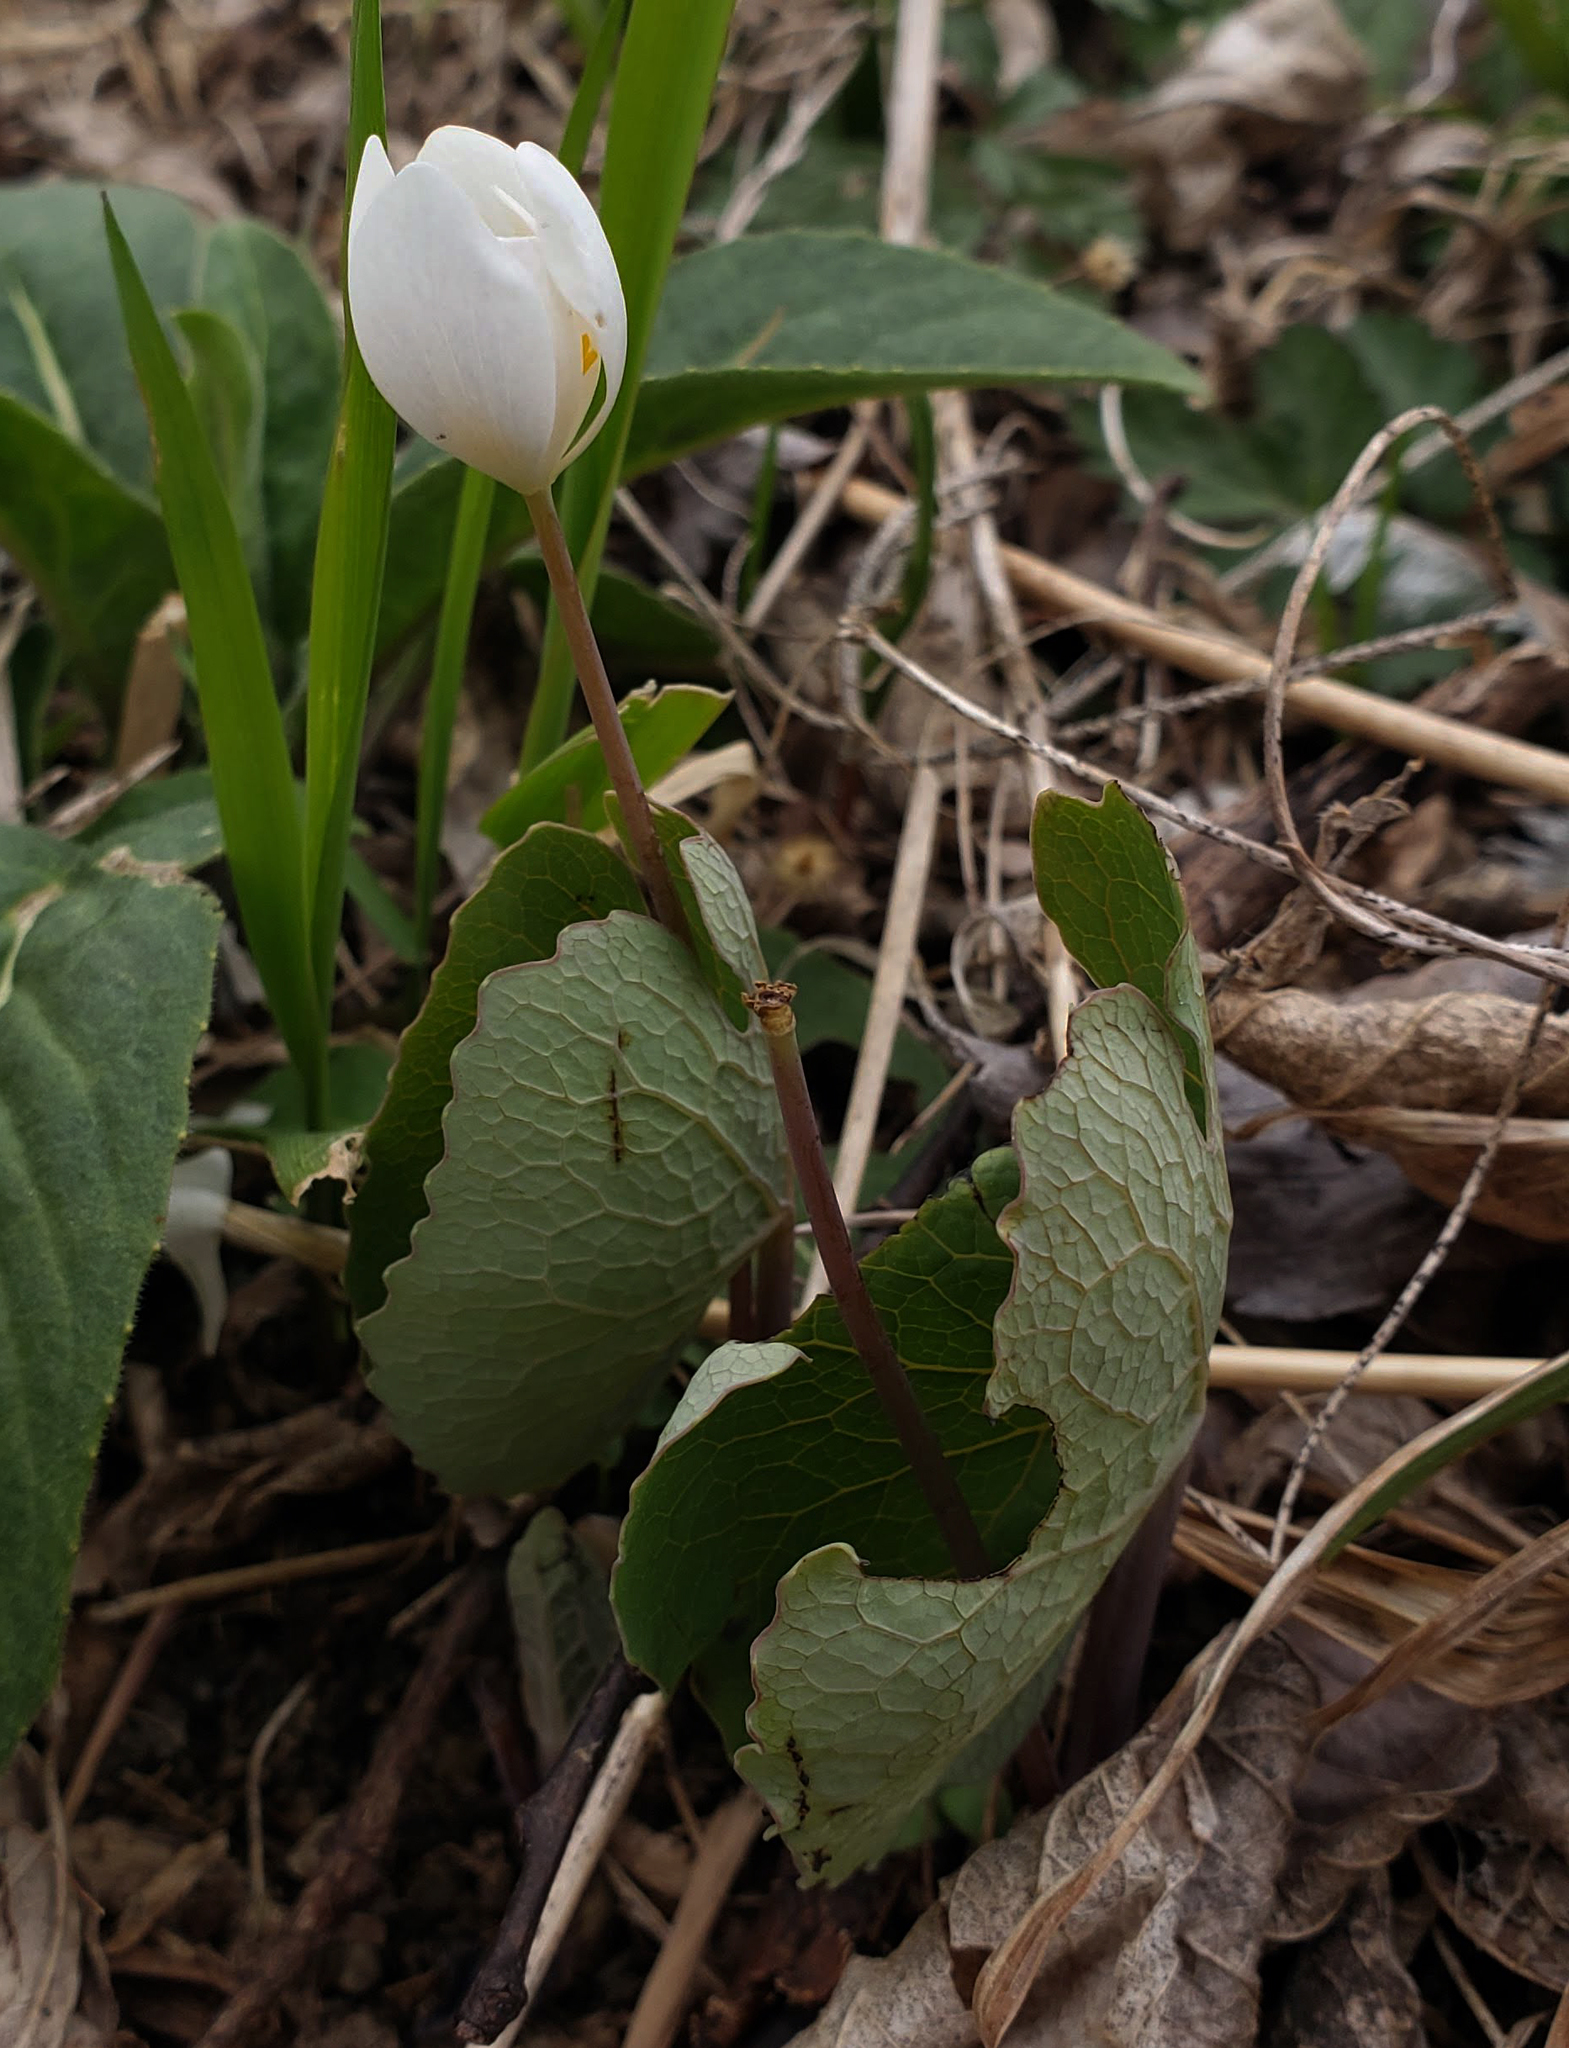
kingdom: Plantae
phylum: Tracheophyta
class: Magnoliopsida
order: Ranunculales
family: Papaveraceae
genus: Sanguinaria
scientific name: Sanguinaria canadensis
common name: Bloodroot
